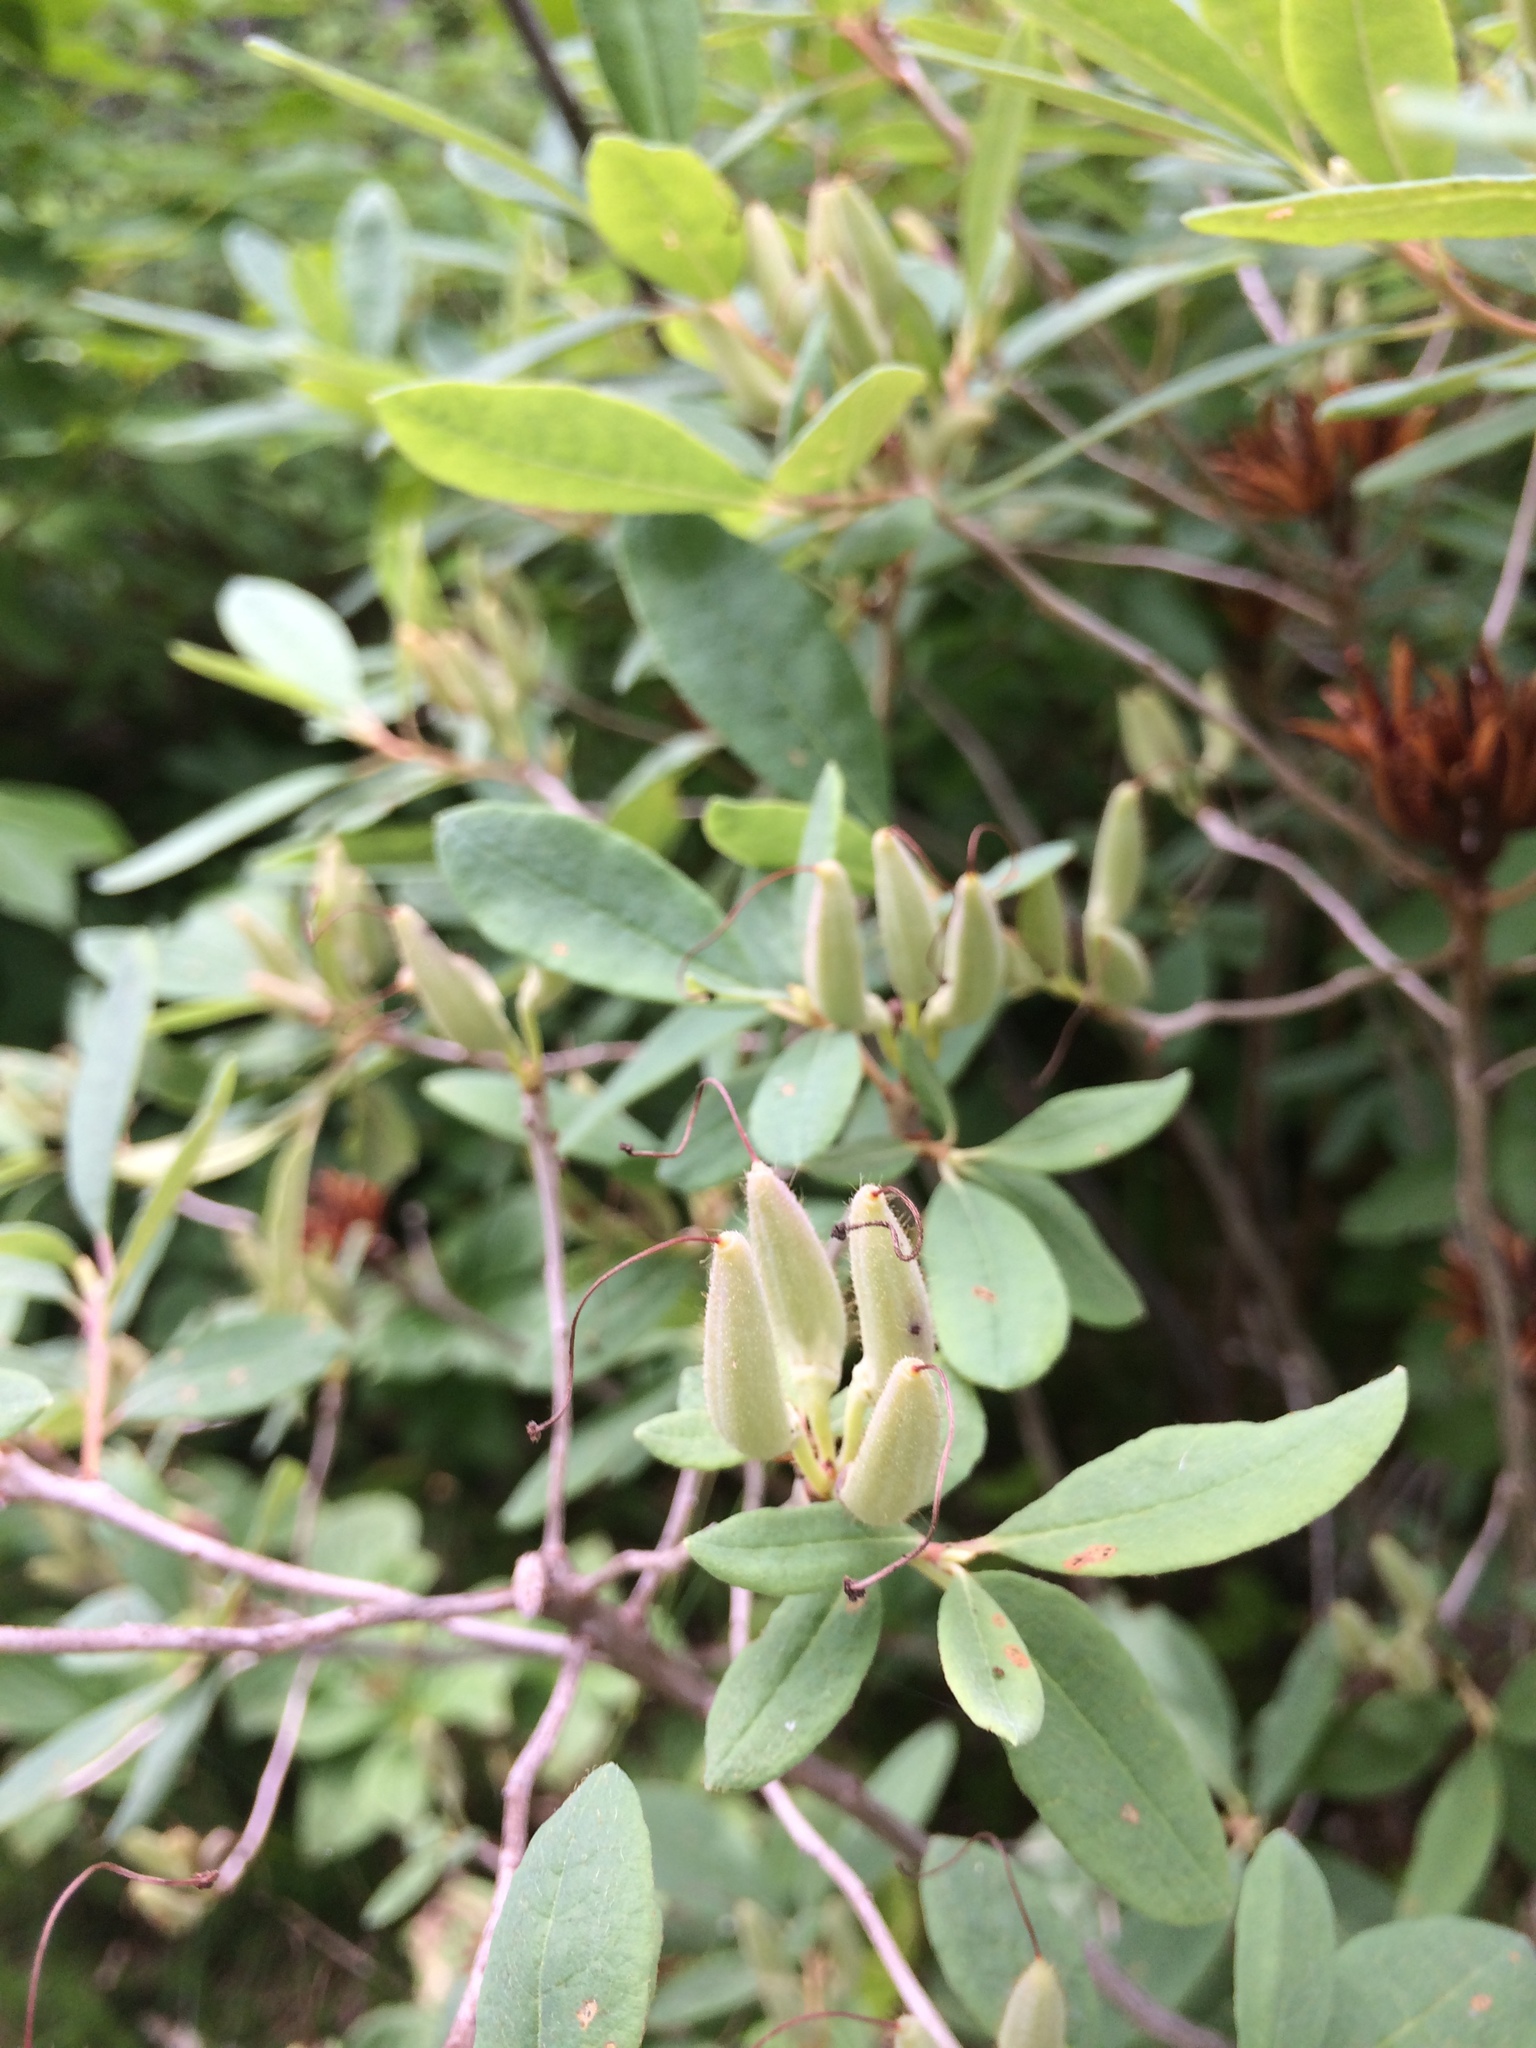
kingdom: Plantae
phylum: Tracheophyta
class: Magnoliopsida
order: Ericales
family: Ericaceae
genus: Rhododendron
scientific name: Rhododendron canadense
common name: Rhodora
